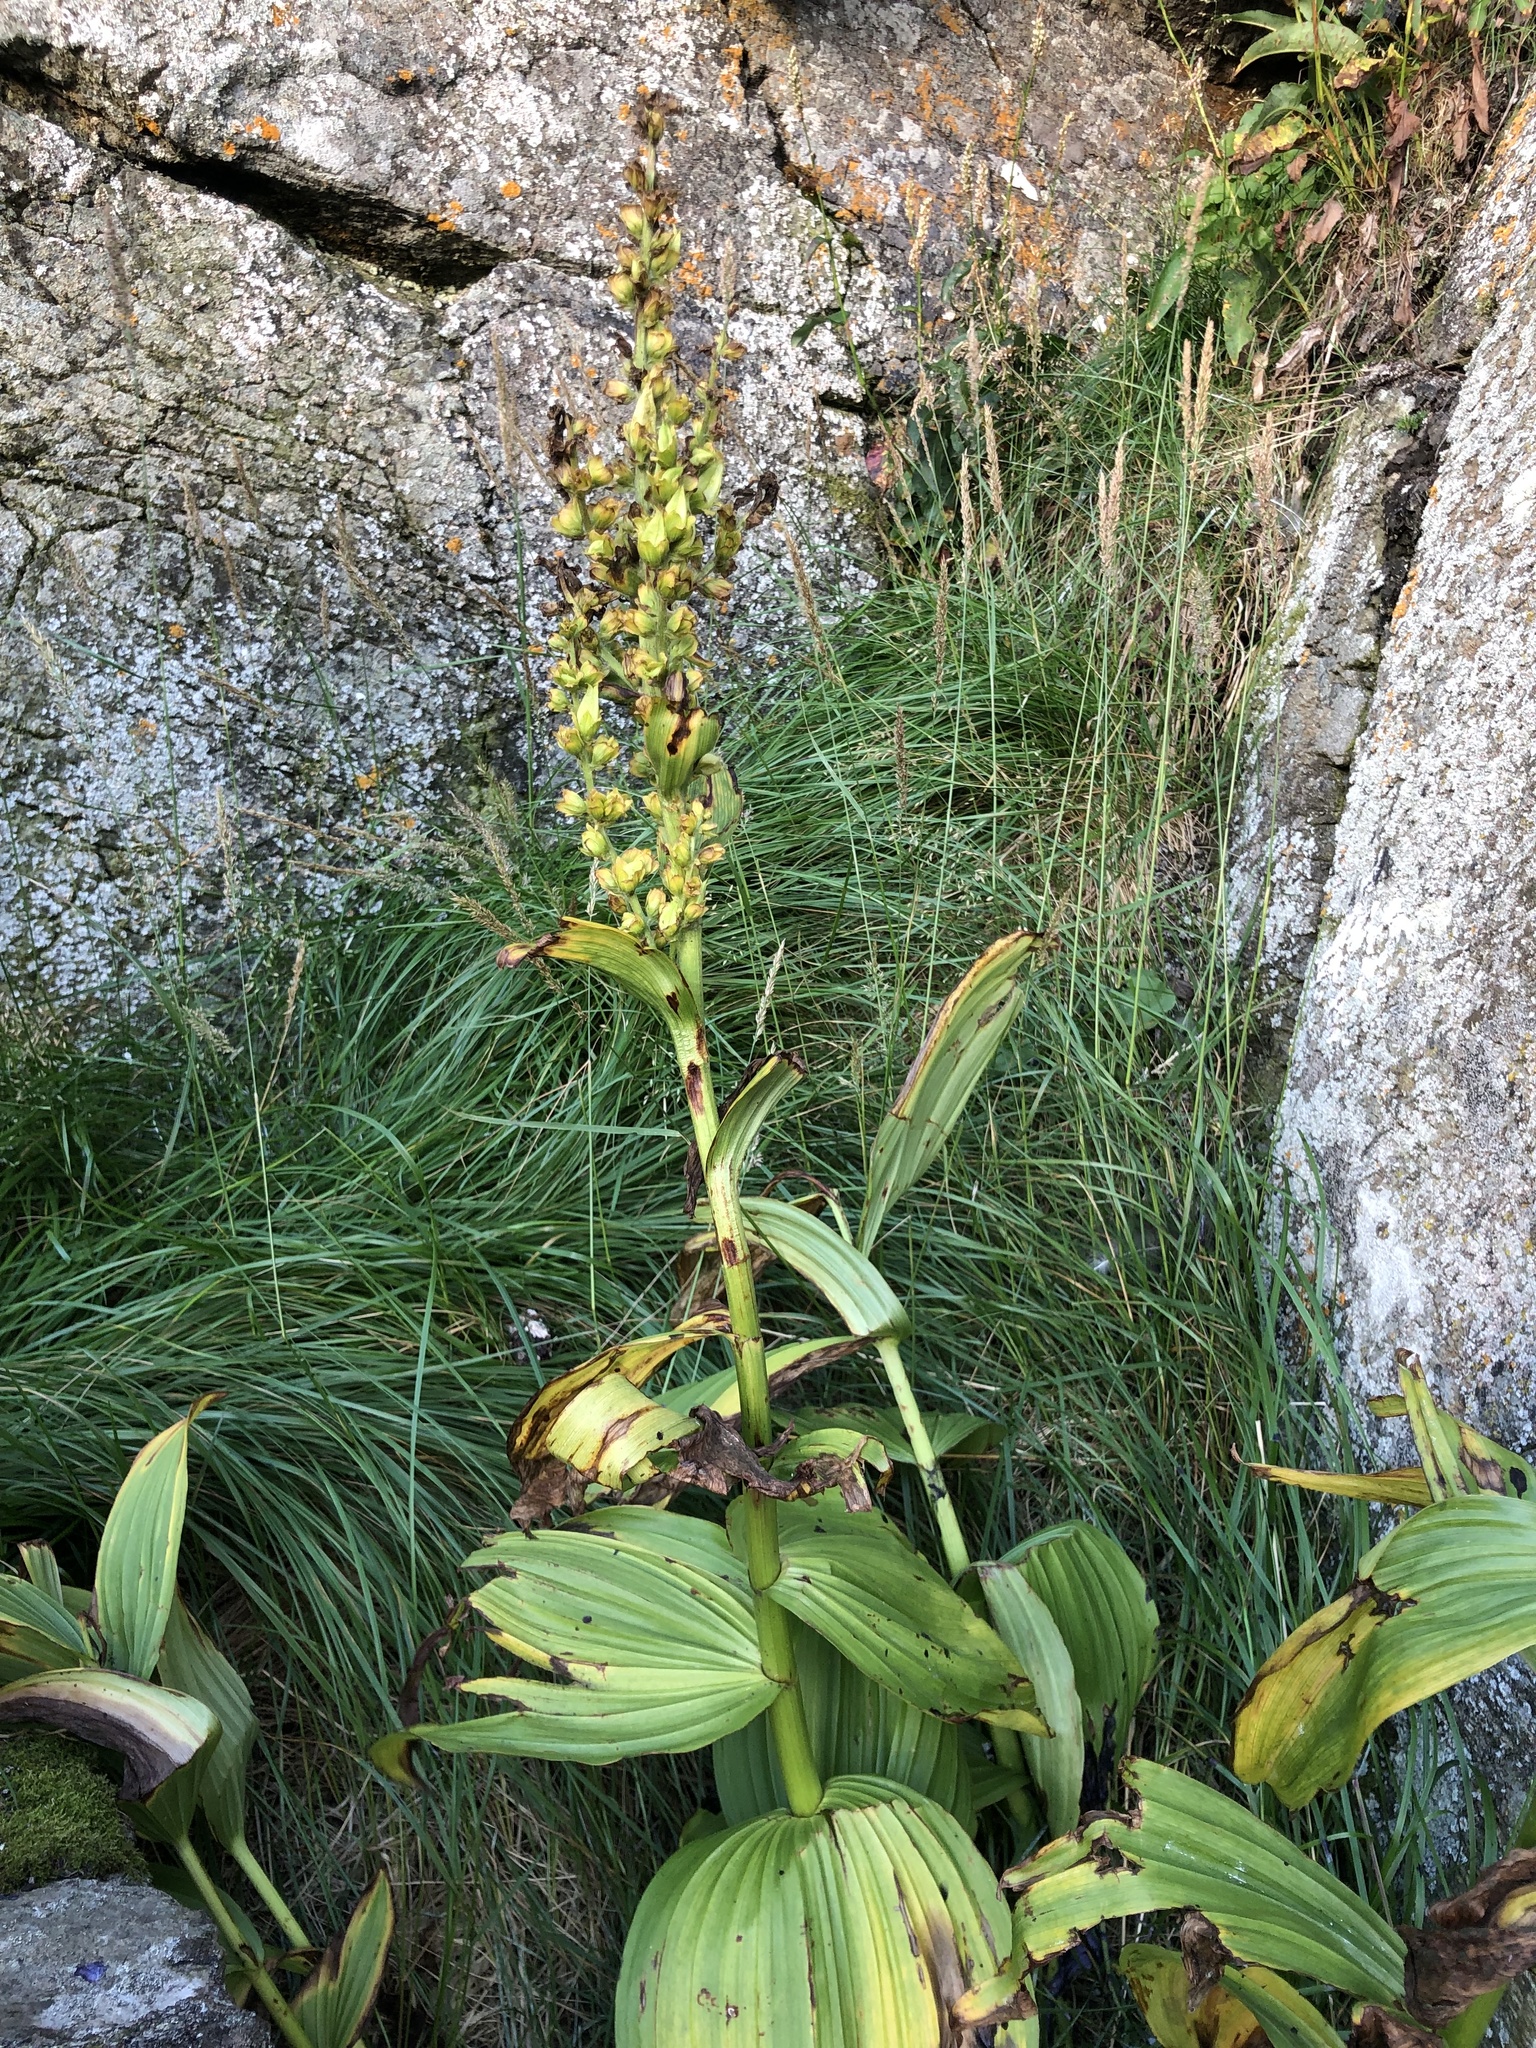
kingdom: Plantae
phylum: Tracheophyta
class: Liliopsida
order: Liliales
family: Melanthiaceae
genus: Veratrum
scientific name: Veratrum lobelianum
